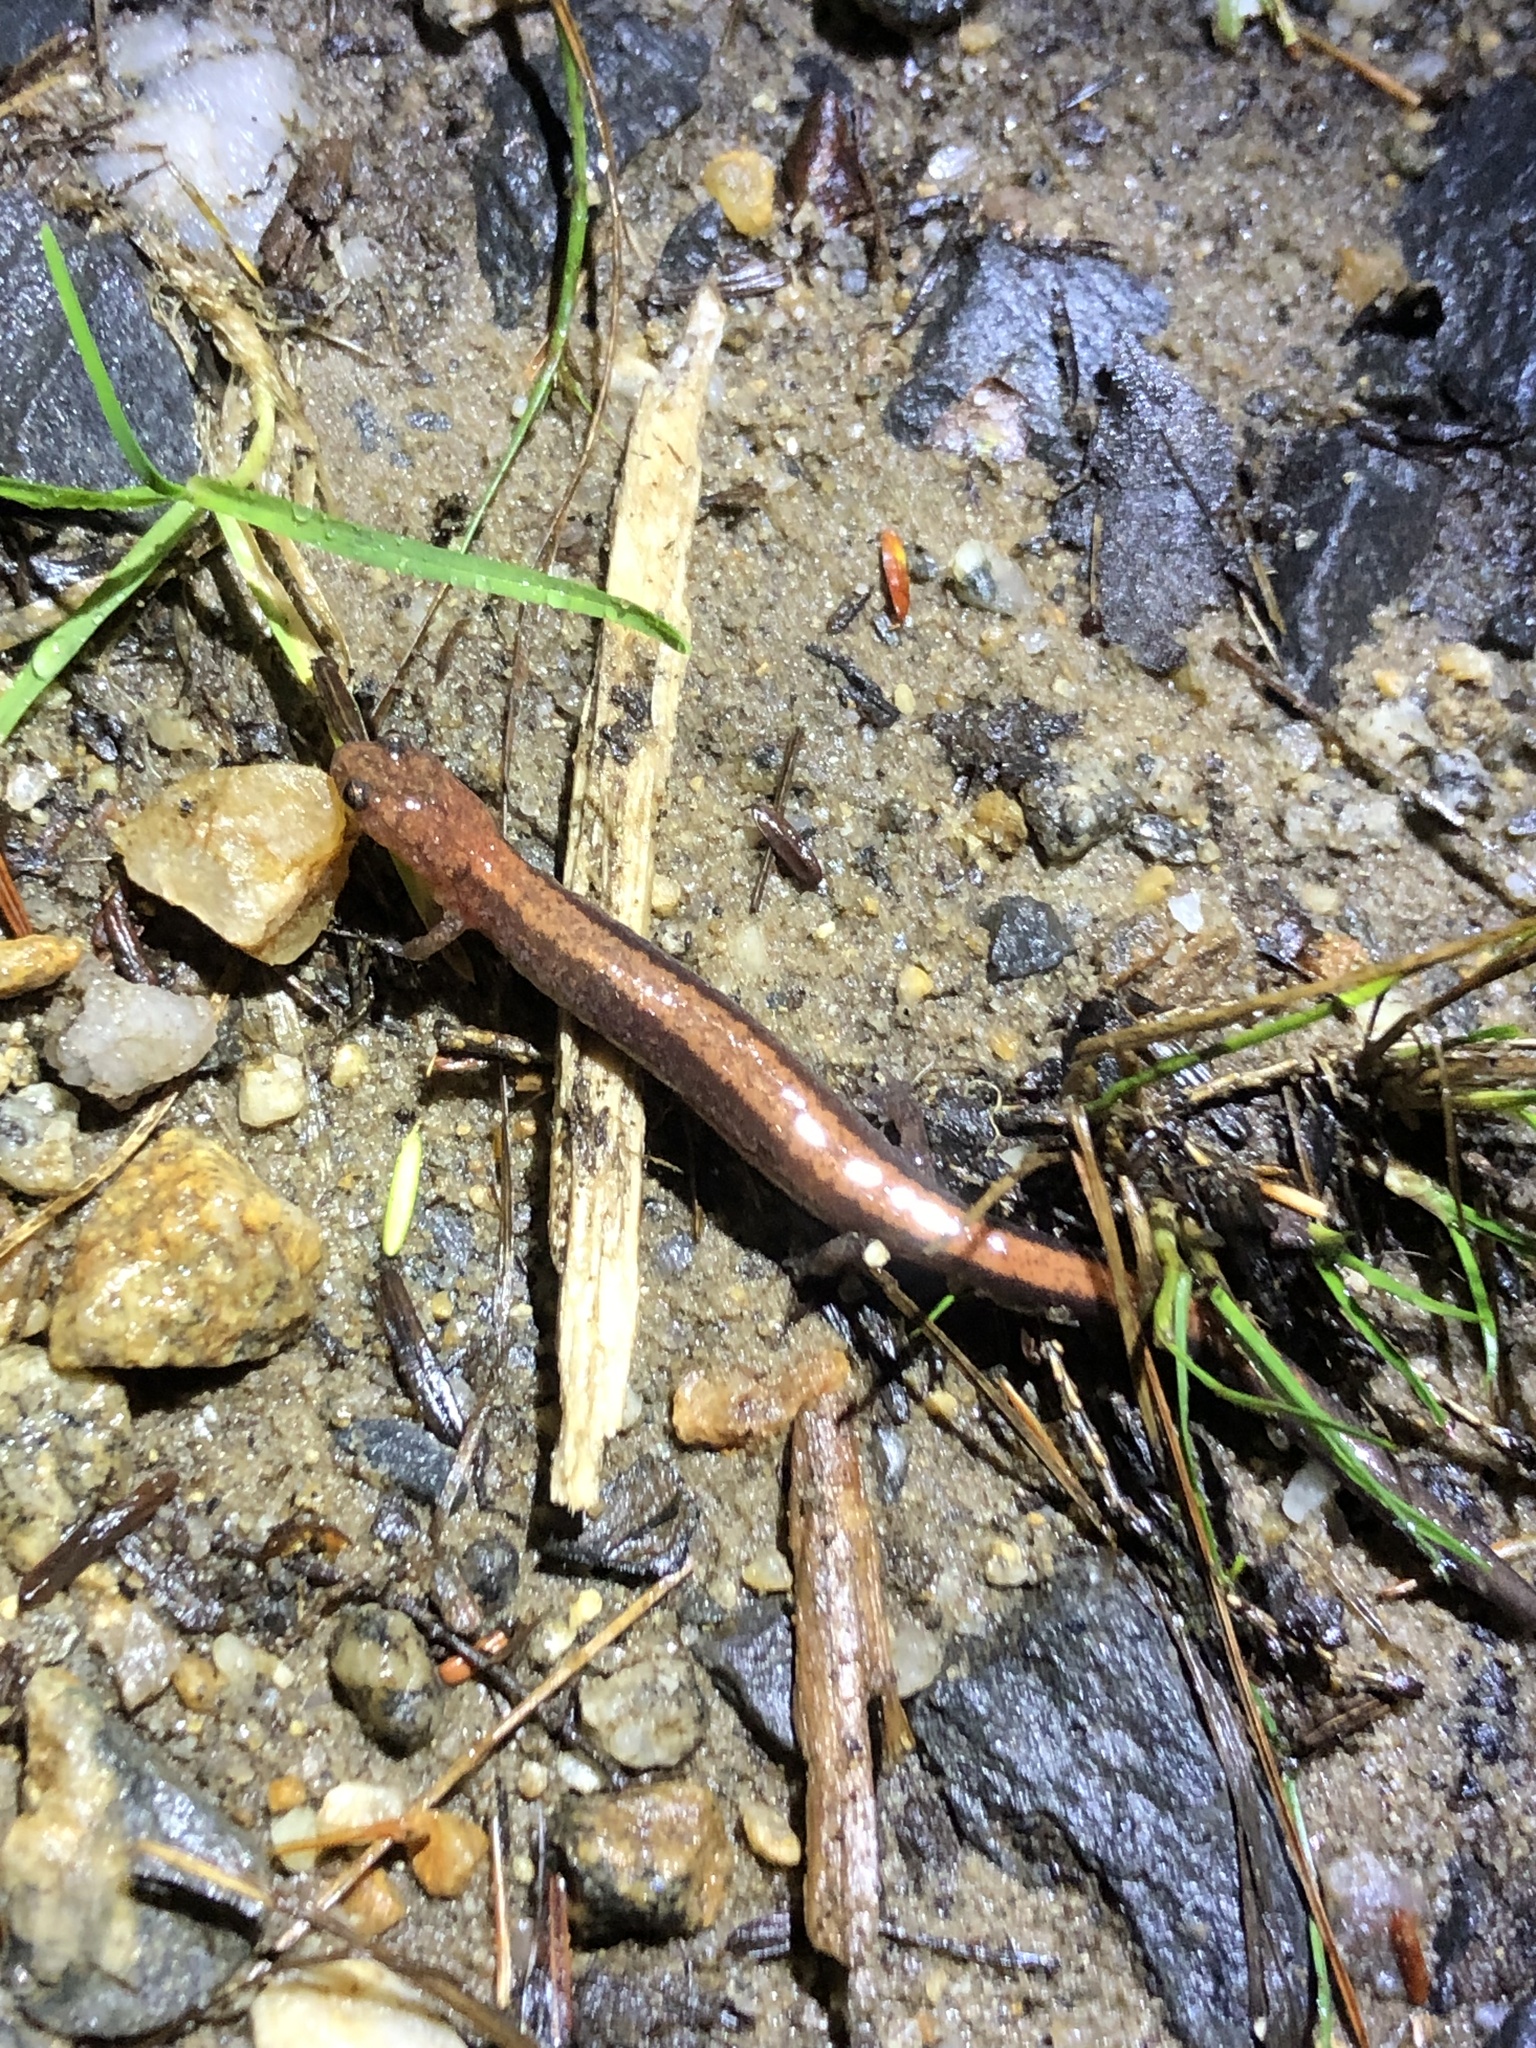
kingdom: Animalia
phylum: Chordata
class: Amphibia
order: Caudata
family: Plethodontidae
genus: Plethodon
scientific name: Plethodon cinereus
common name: Redback salamander
